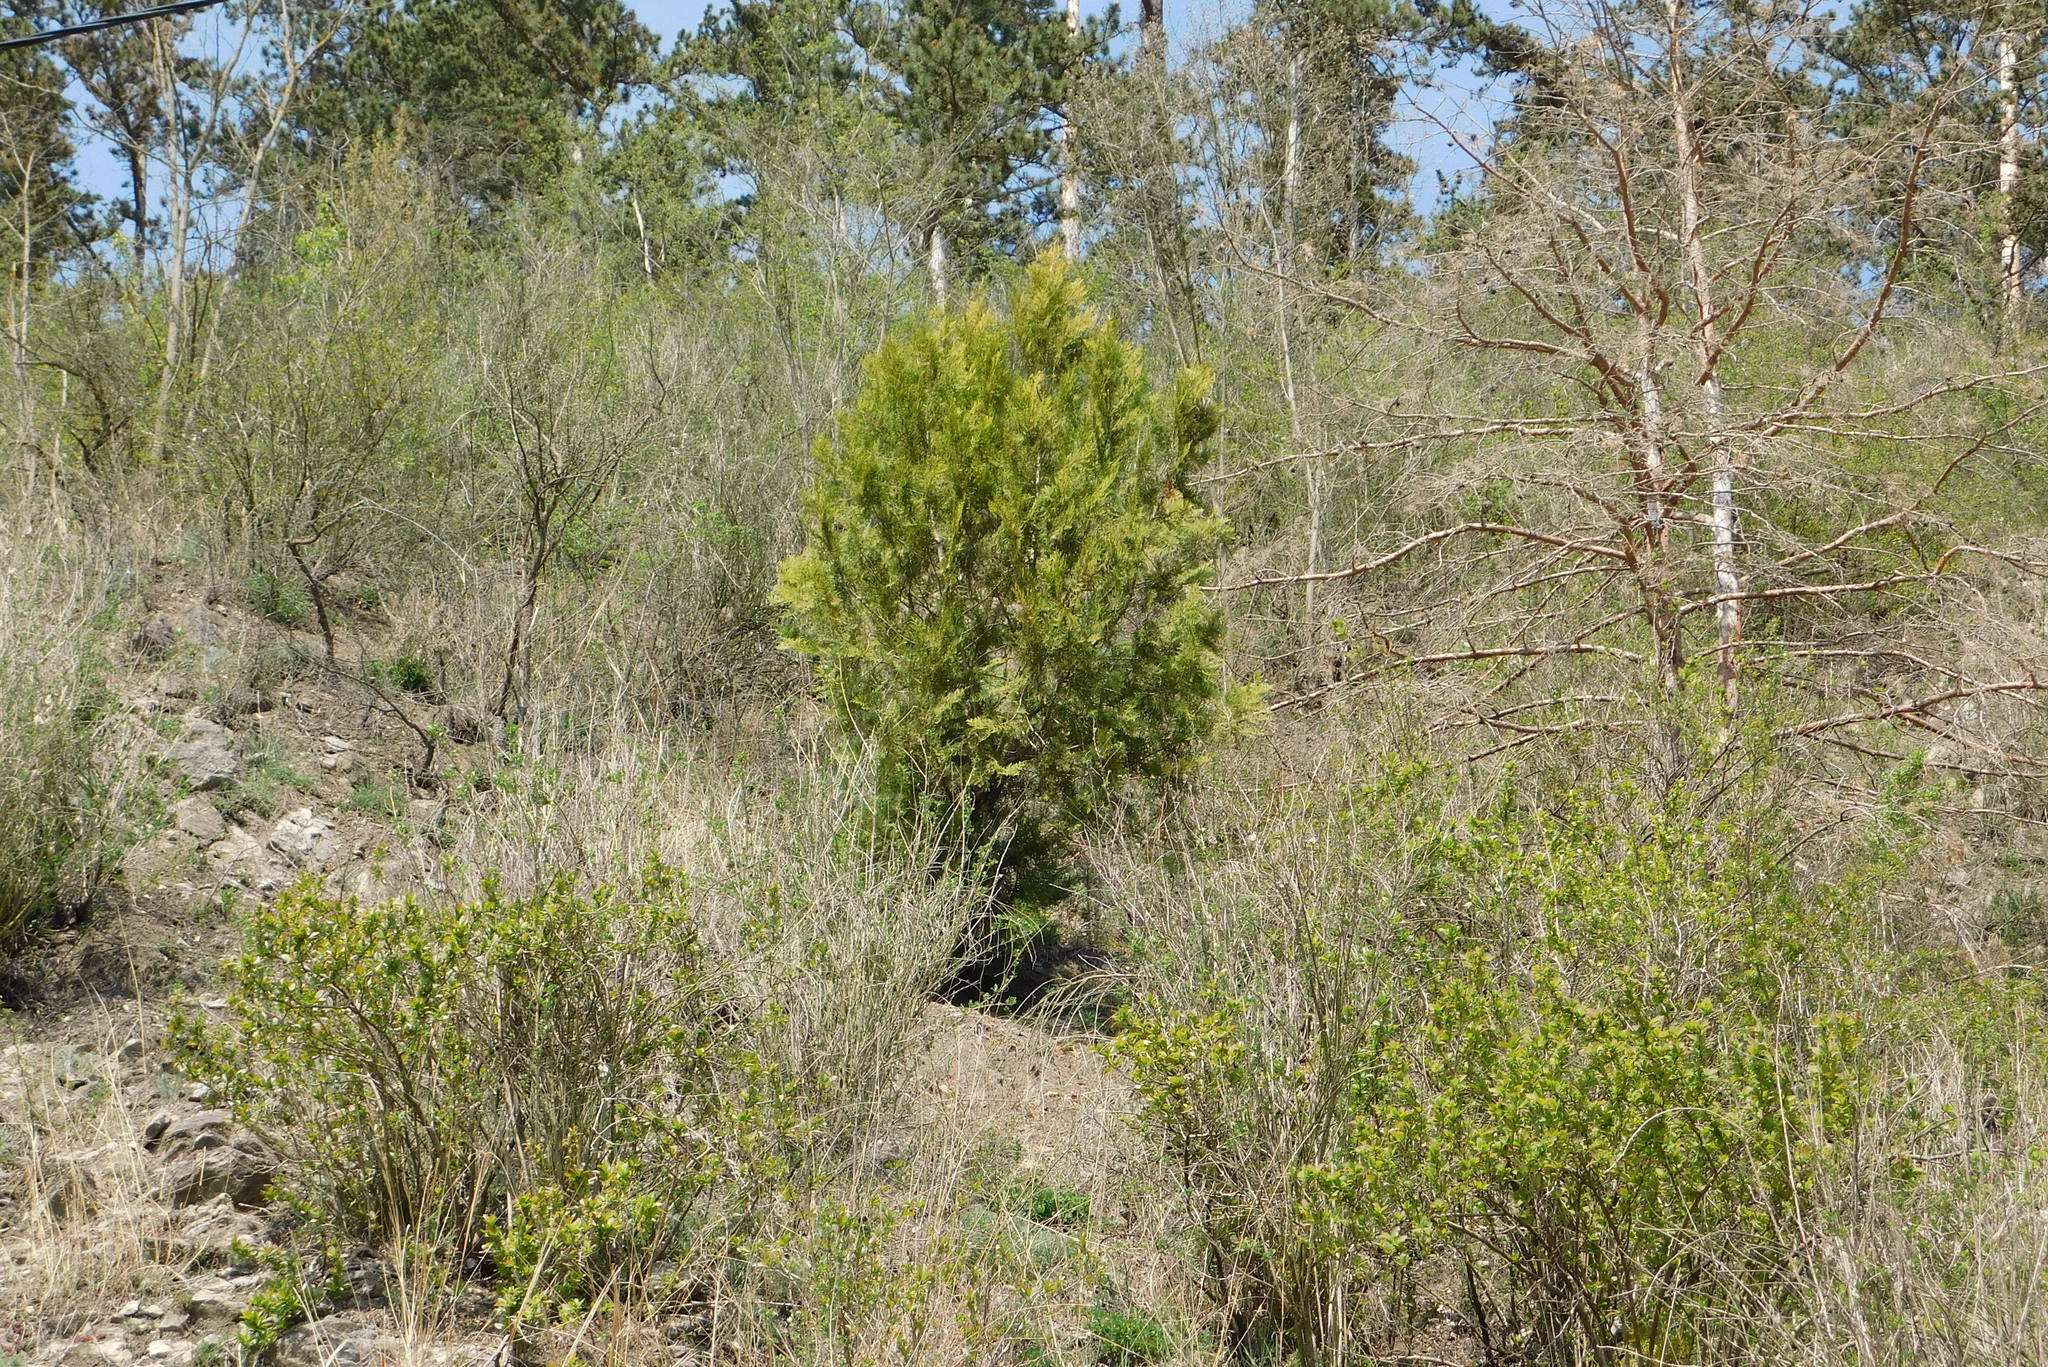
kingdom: Plantae
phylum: Tracheophyta
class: Pinopsida
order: Pinales
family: Cupressaceae
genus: Platycladus
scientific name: Platycladus orientalis
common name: Chinese thuja
